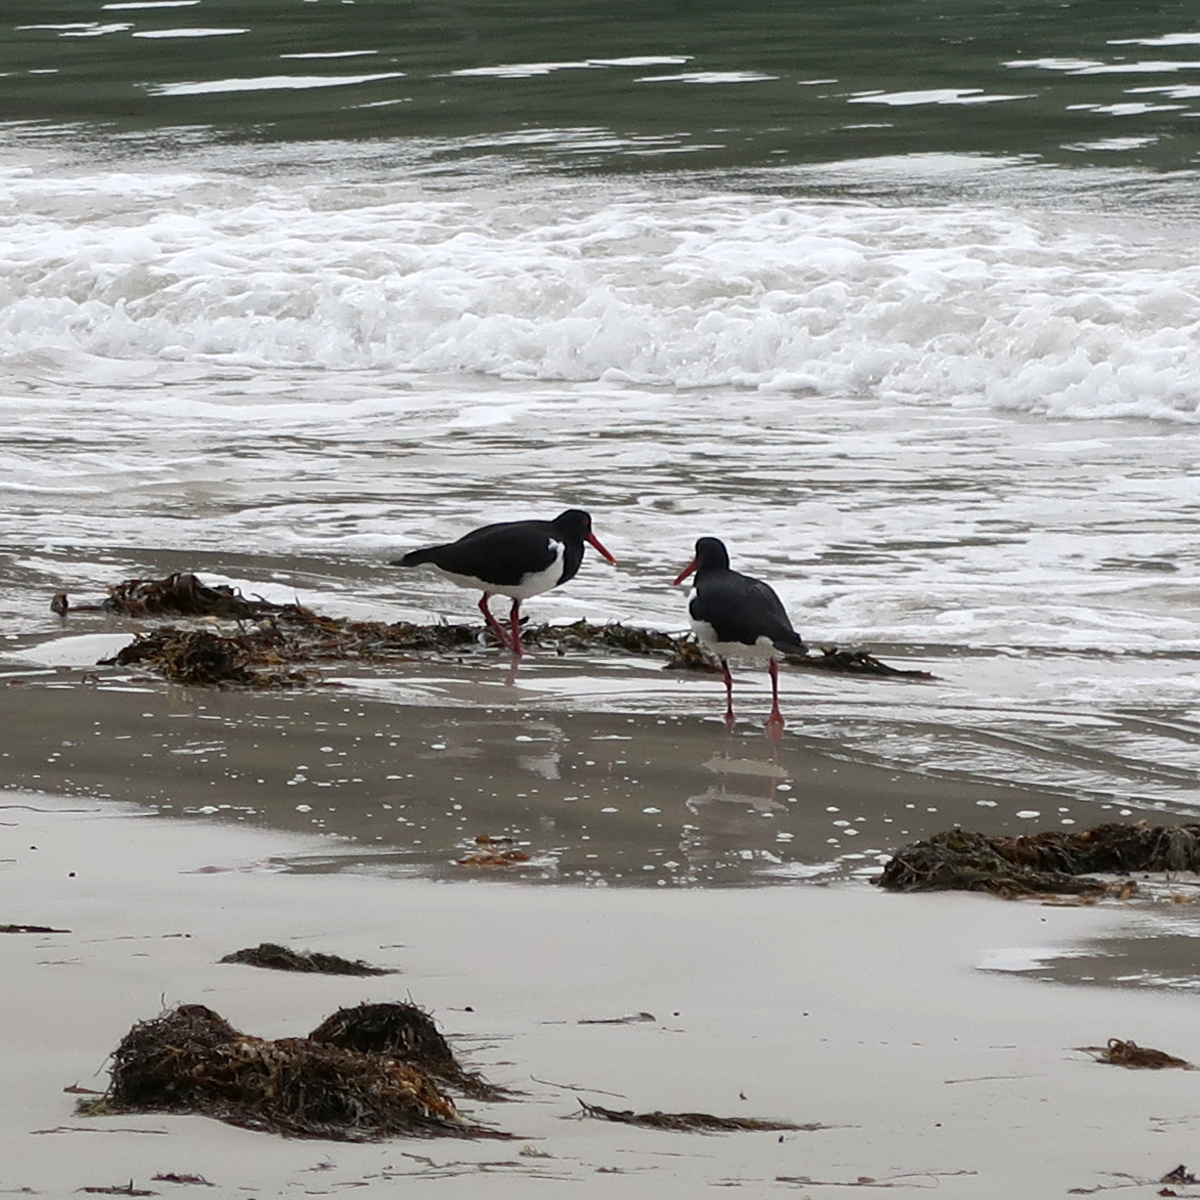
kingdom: Animalia
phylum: Chordata
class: Aves
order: Charadriiformes
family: Haematopodidae
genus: Haematopus
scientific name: Haematopus longirostris
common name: Pied oystercatcher
